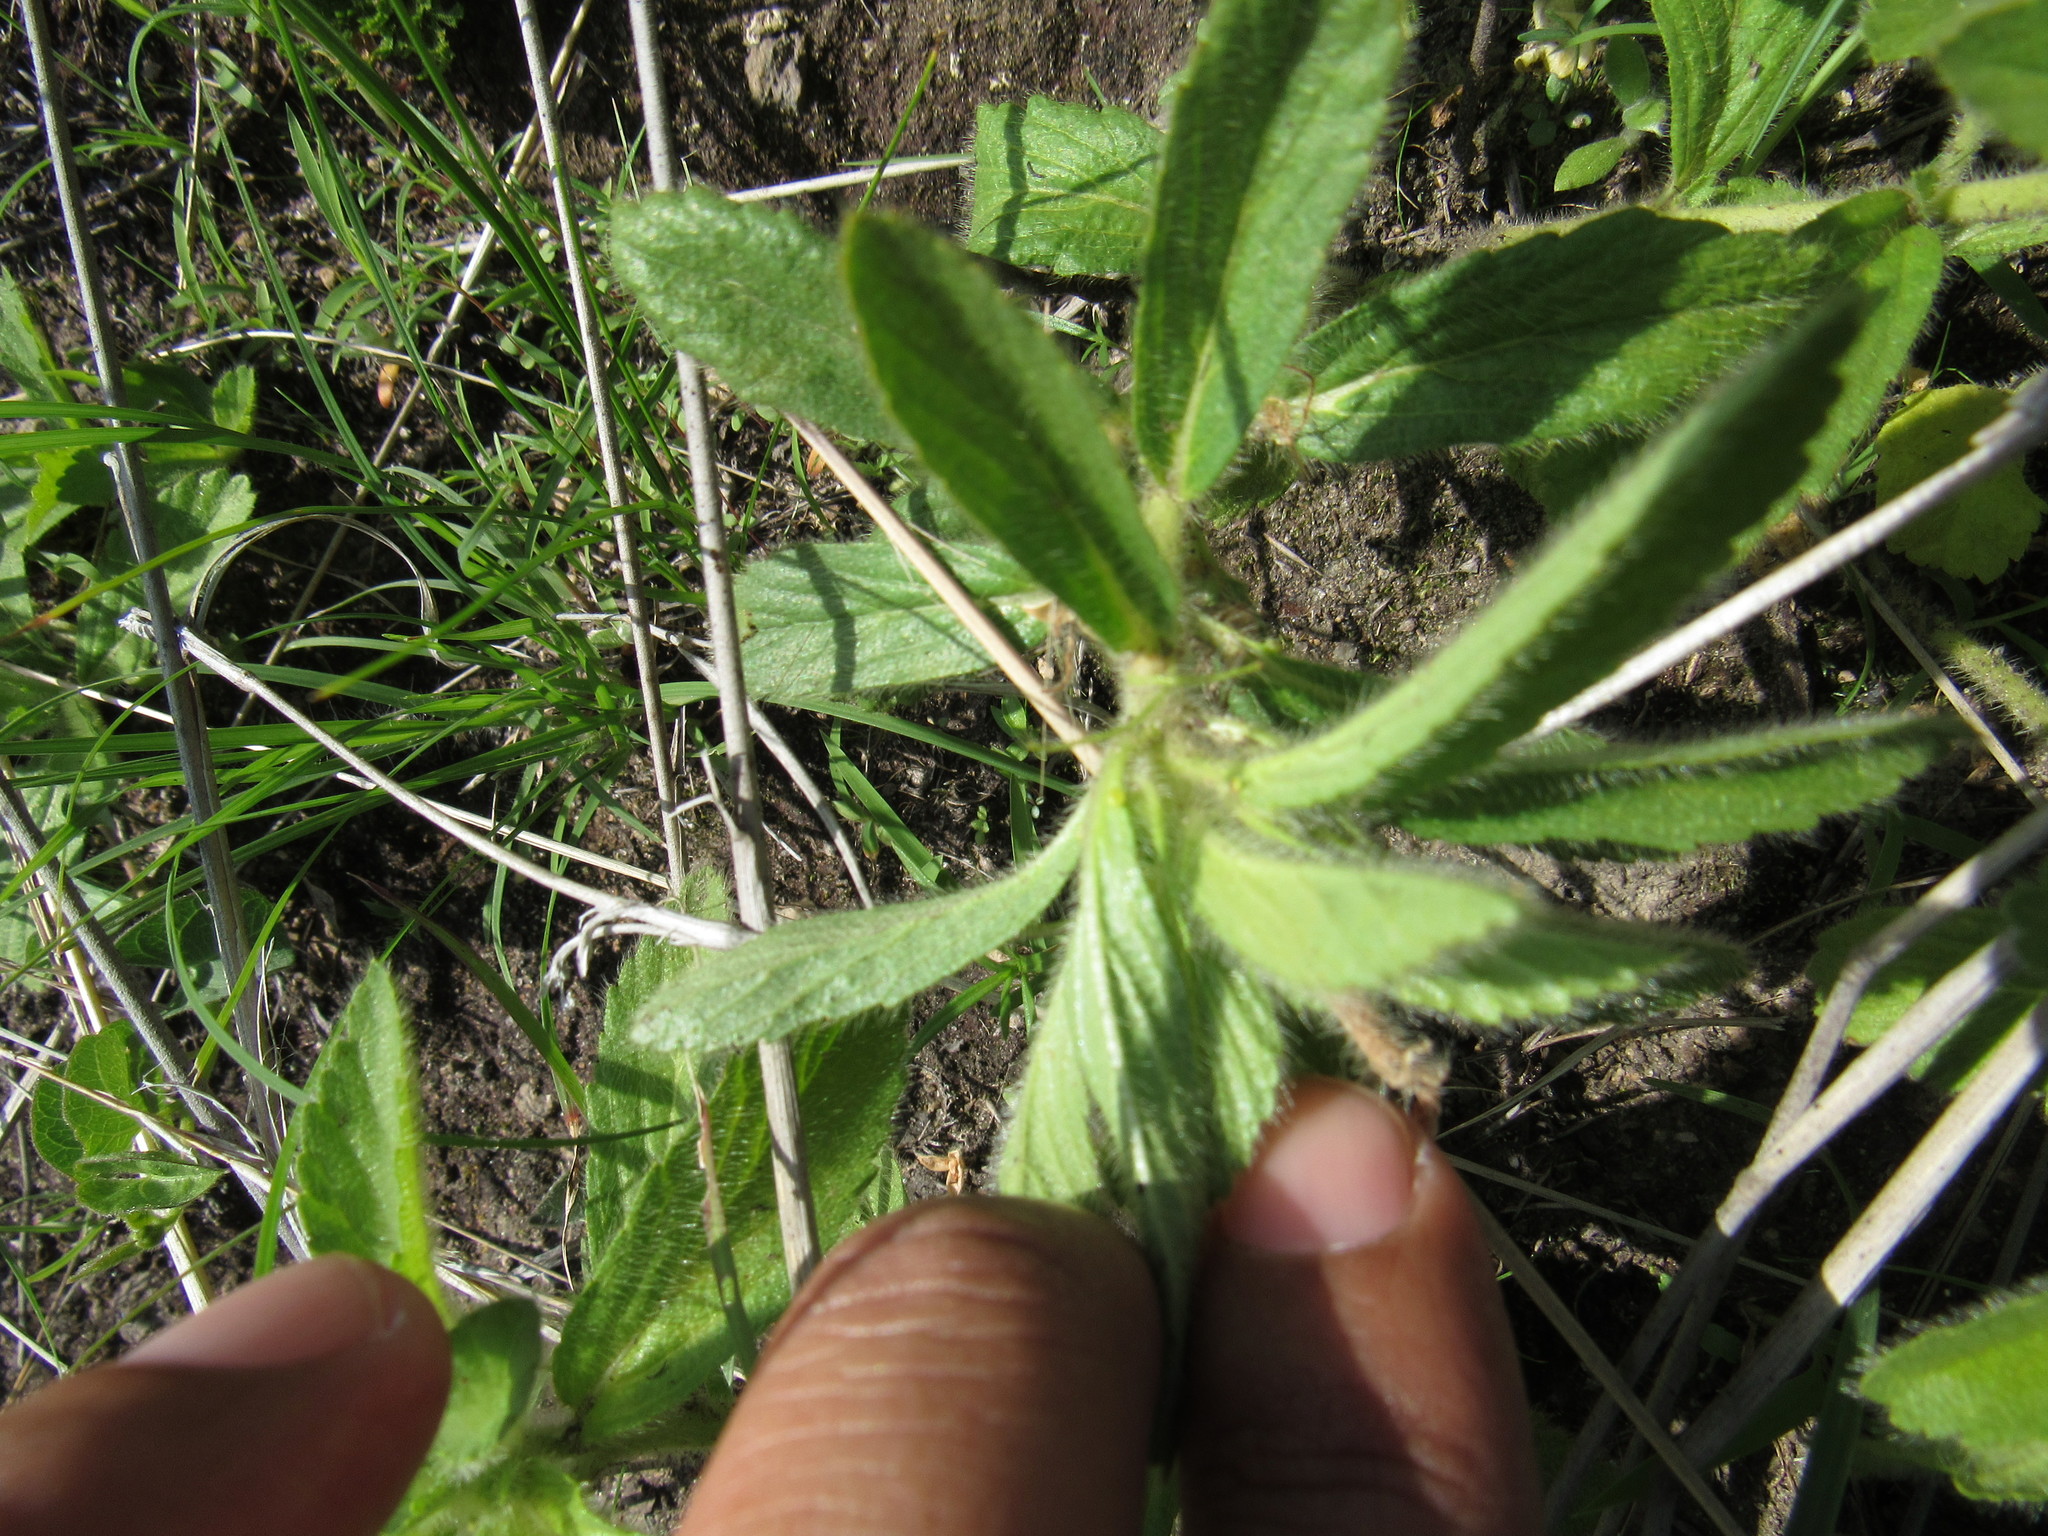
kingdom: Plantae
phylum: Tracheophyta
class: Magnoliopsida
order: Malpighiales
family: Turneraceae
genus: Turnera
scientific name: Turnera pumilea
